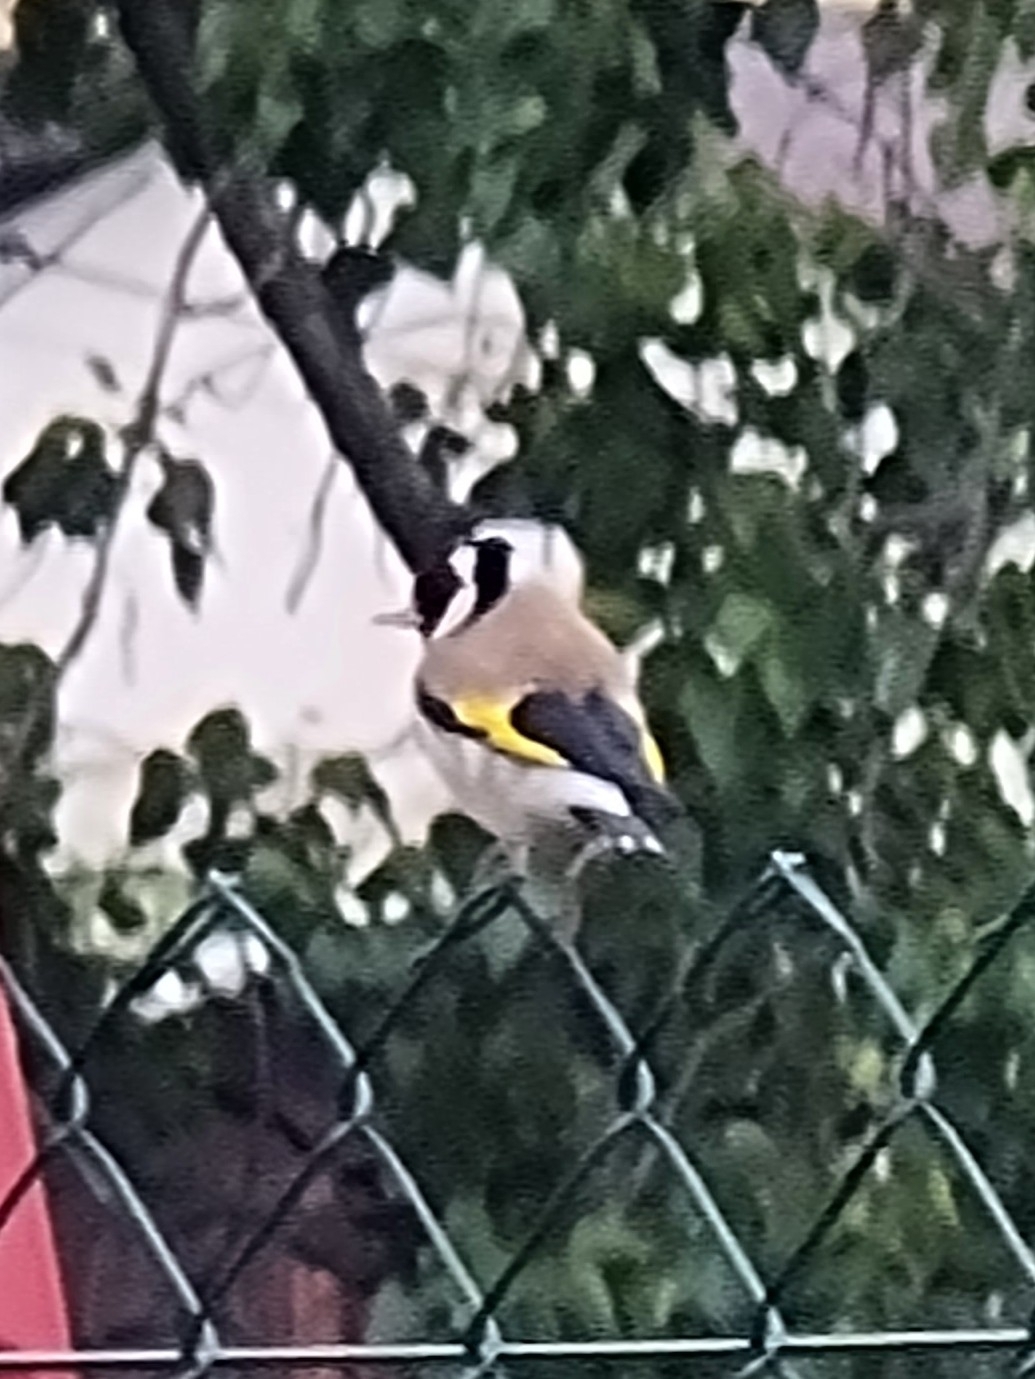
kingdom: Animalia
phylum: Chordata
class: Aves
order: Passeriformes
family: Fringillidae
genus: Carduelis
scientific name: Carduelis carduelis
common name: European goldfinch
